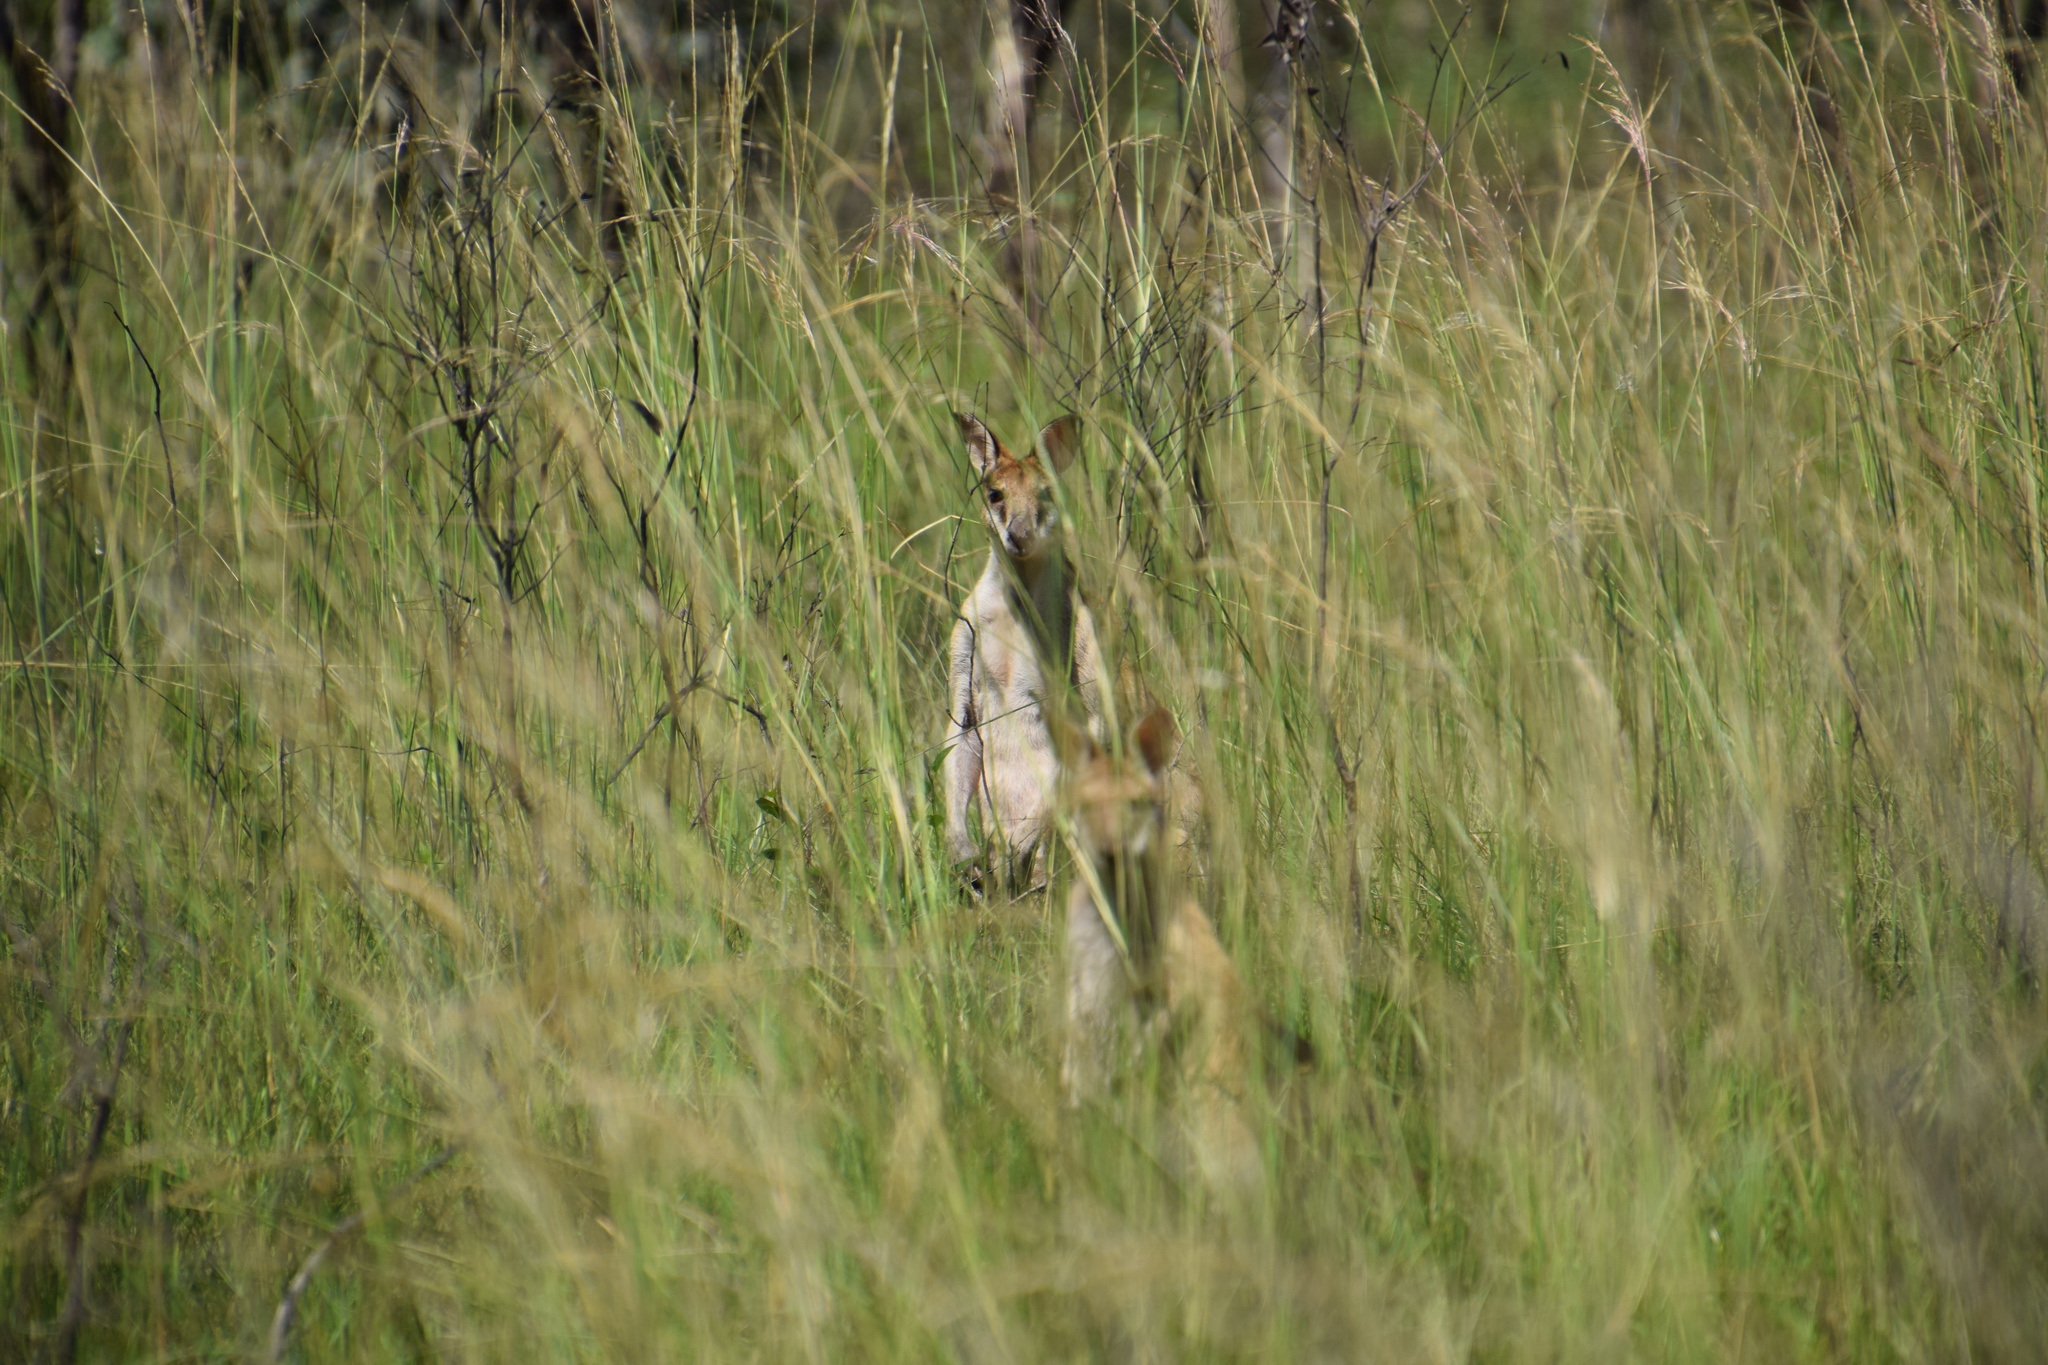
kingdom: Animalia
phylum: Chordata
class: Mammalia
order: Diprotodontia
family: Macropodidae
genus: Macropus
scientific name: Macropus agilis
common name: Agile wallaby
